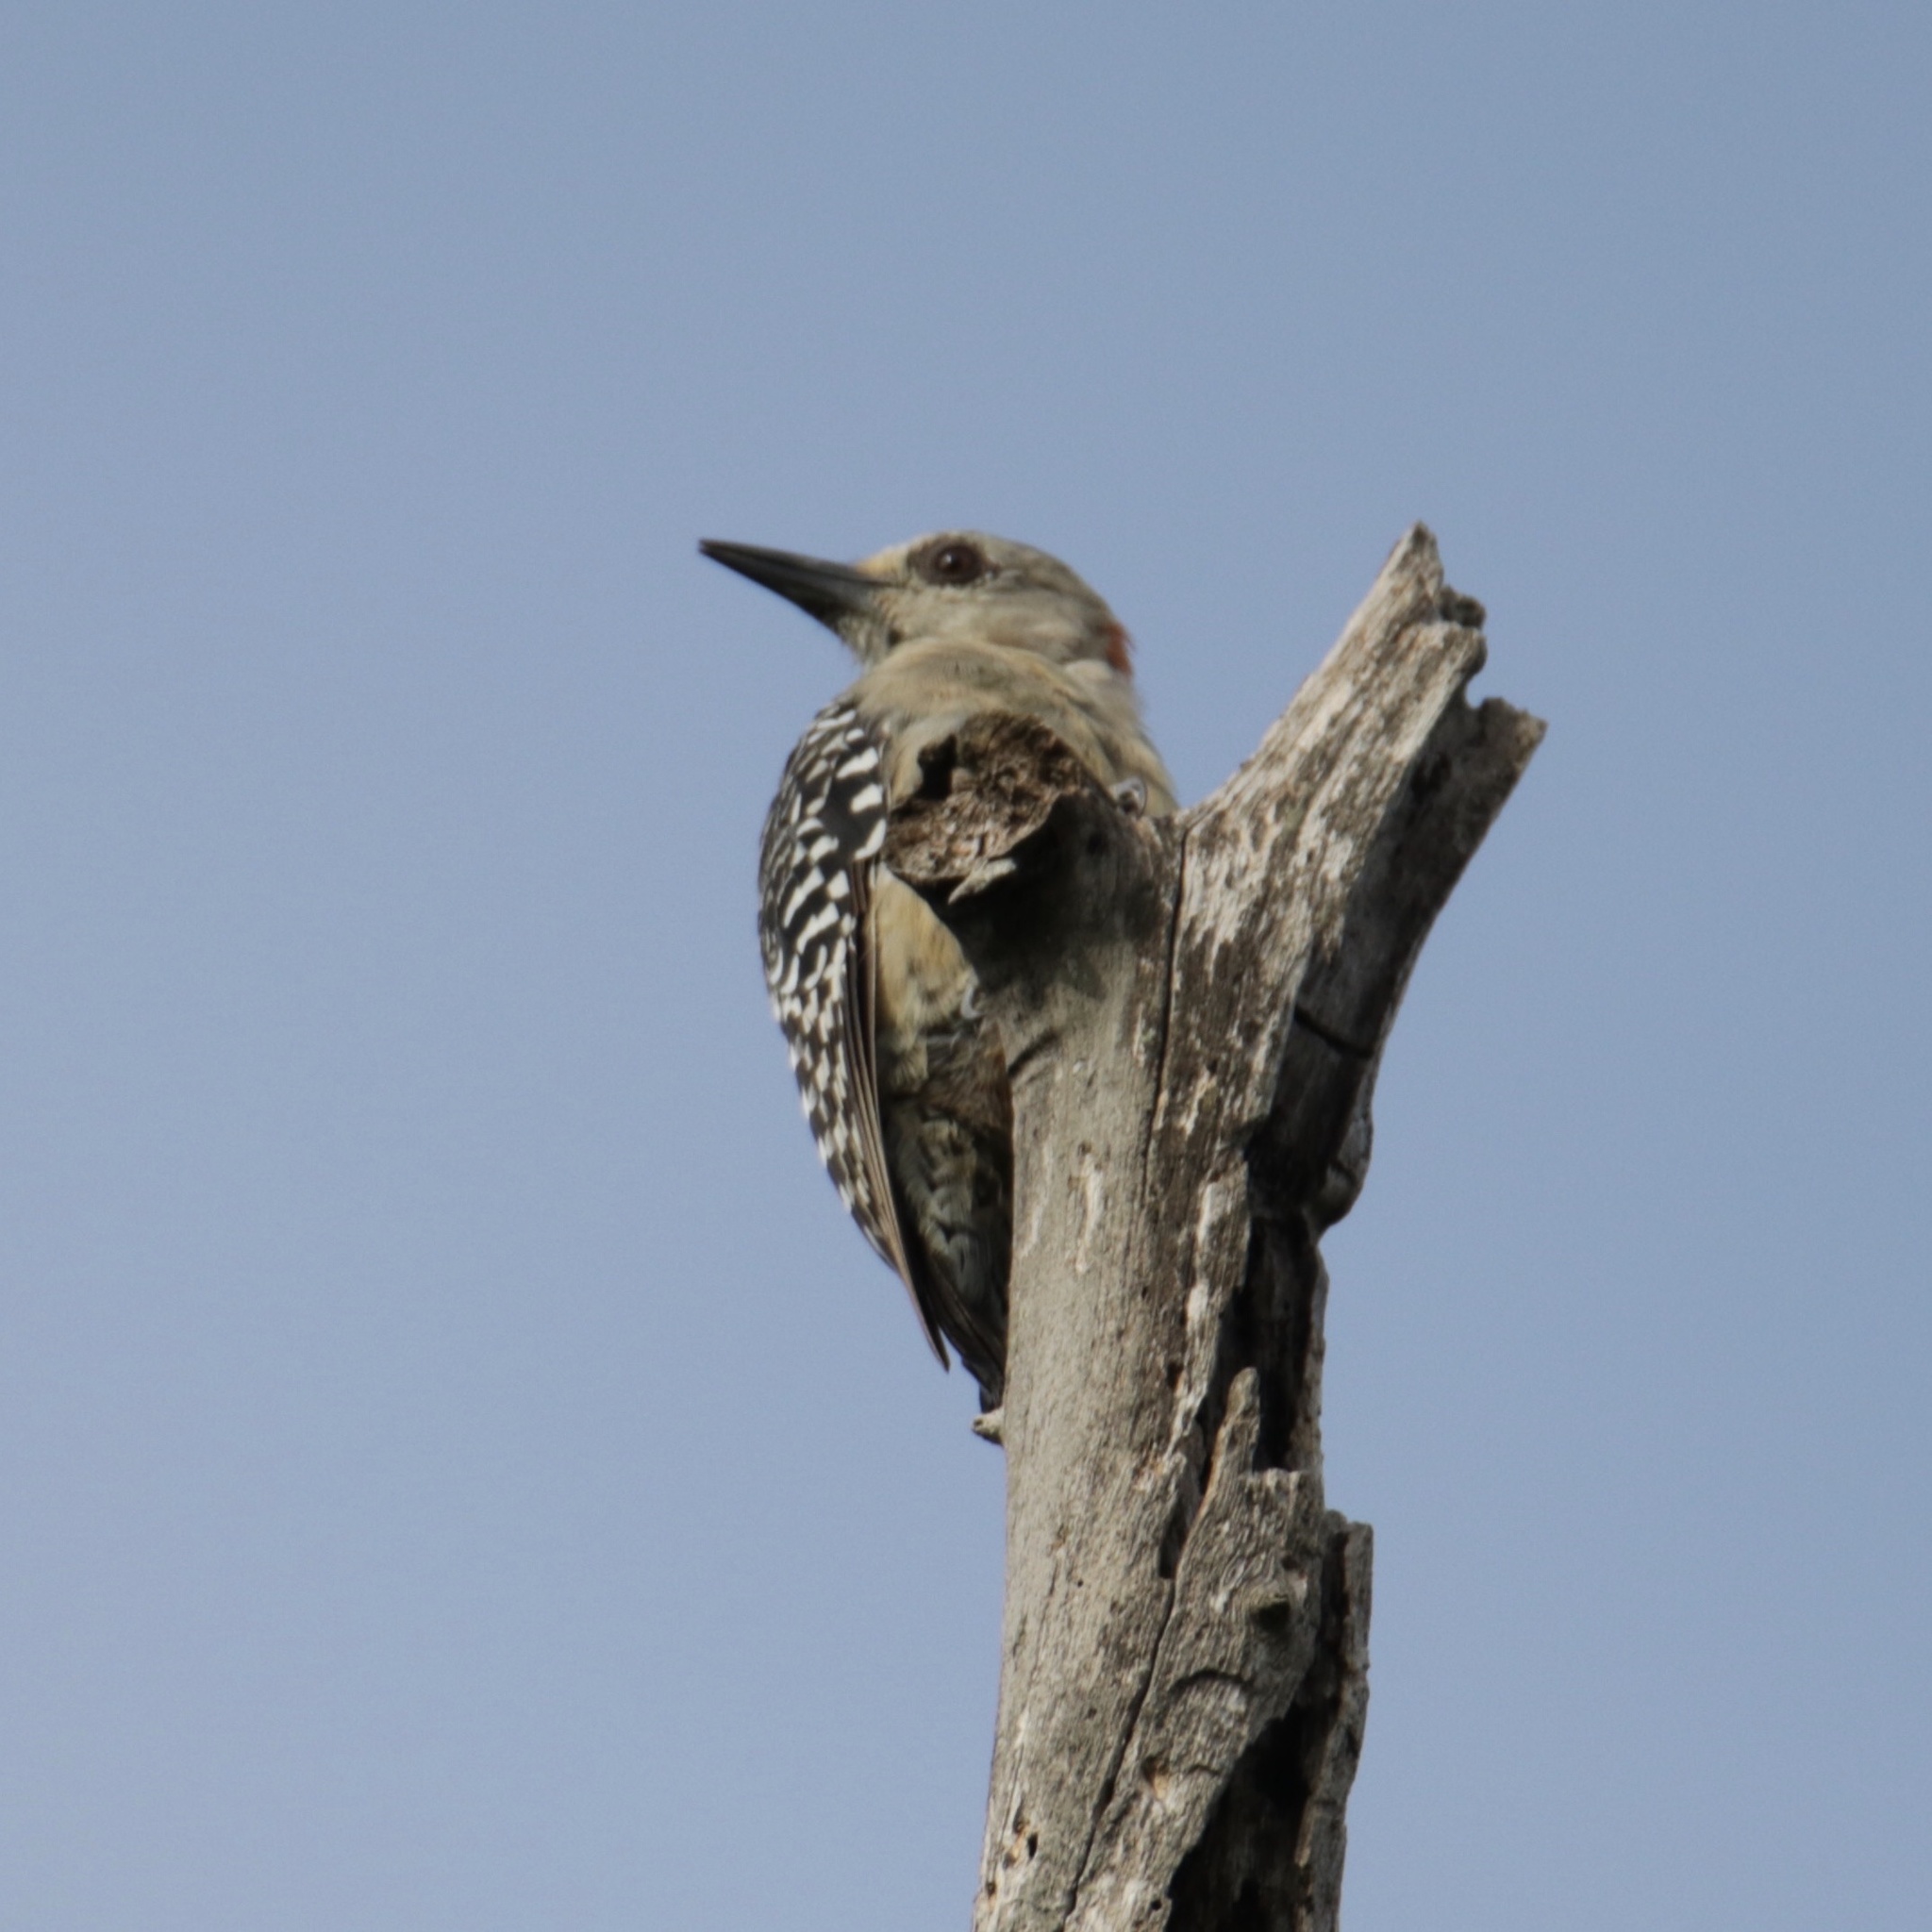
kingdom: Animalia
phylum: Chordata
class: Aves
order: Piciformes
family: Picidae
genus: Melanerpes
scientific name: Melanerpes rubricapillus
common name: Red-crowned woodpecker
